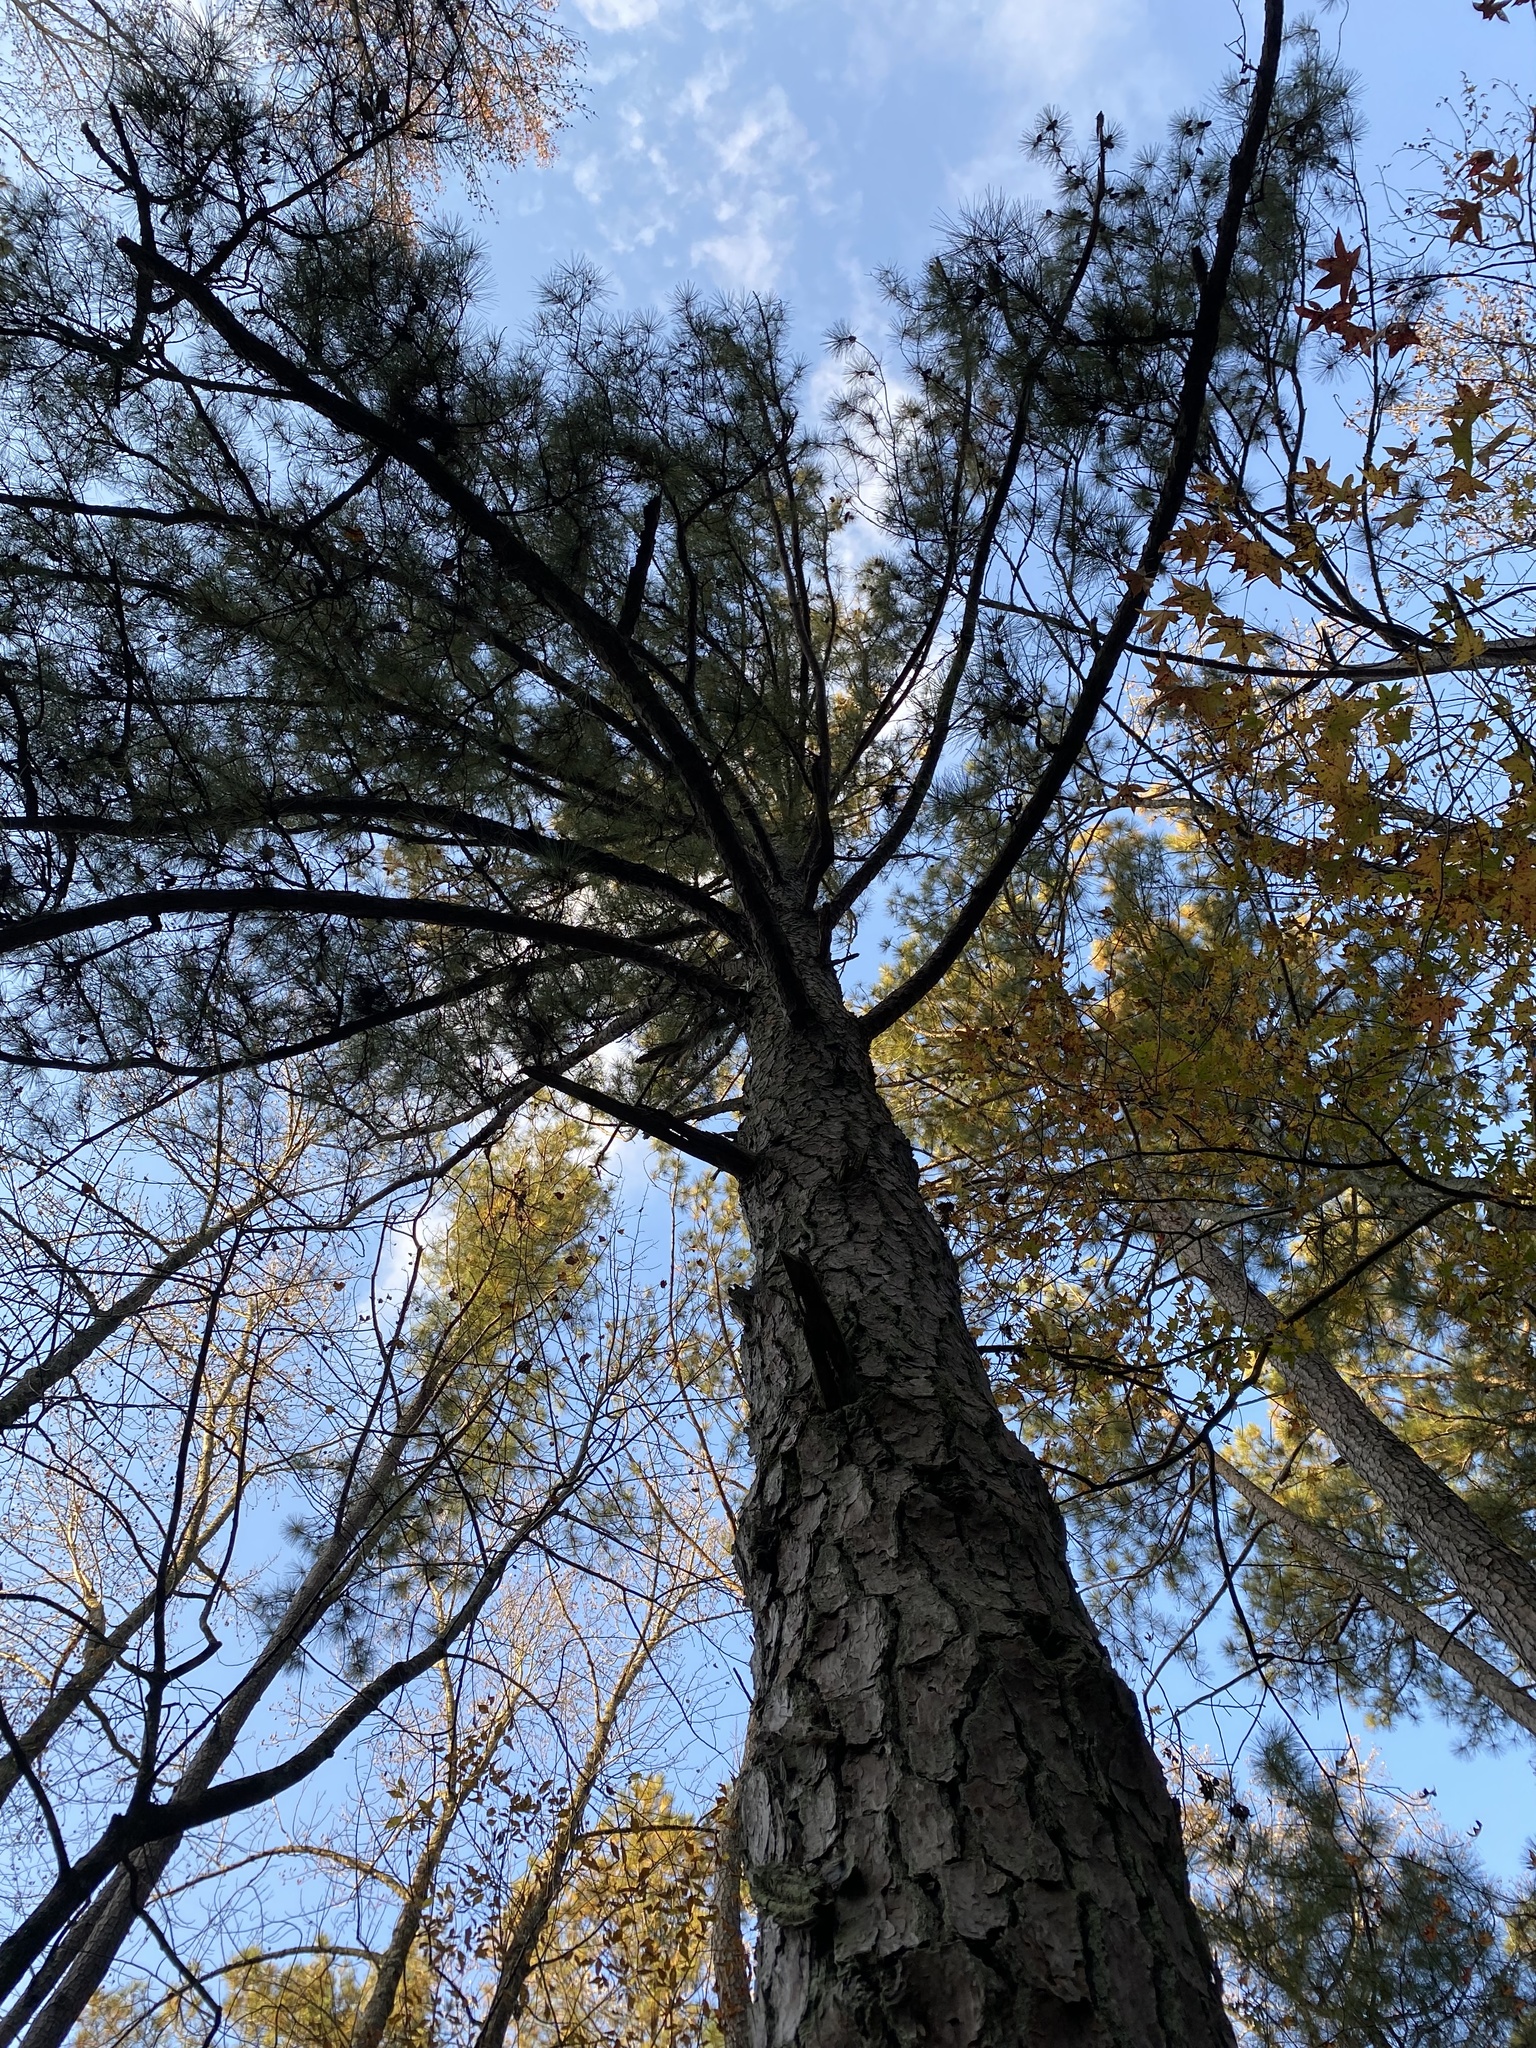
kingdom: Plantae
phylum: Tracheophyta
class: Pinopsida
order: Pinales
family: Pinaceae
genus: Pinus
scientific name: Pinus taeda
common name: Loblolly pine
